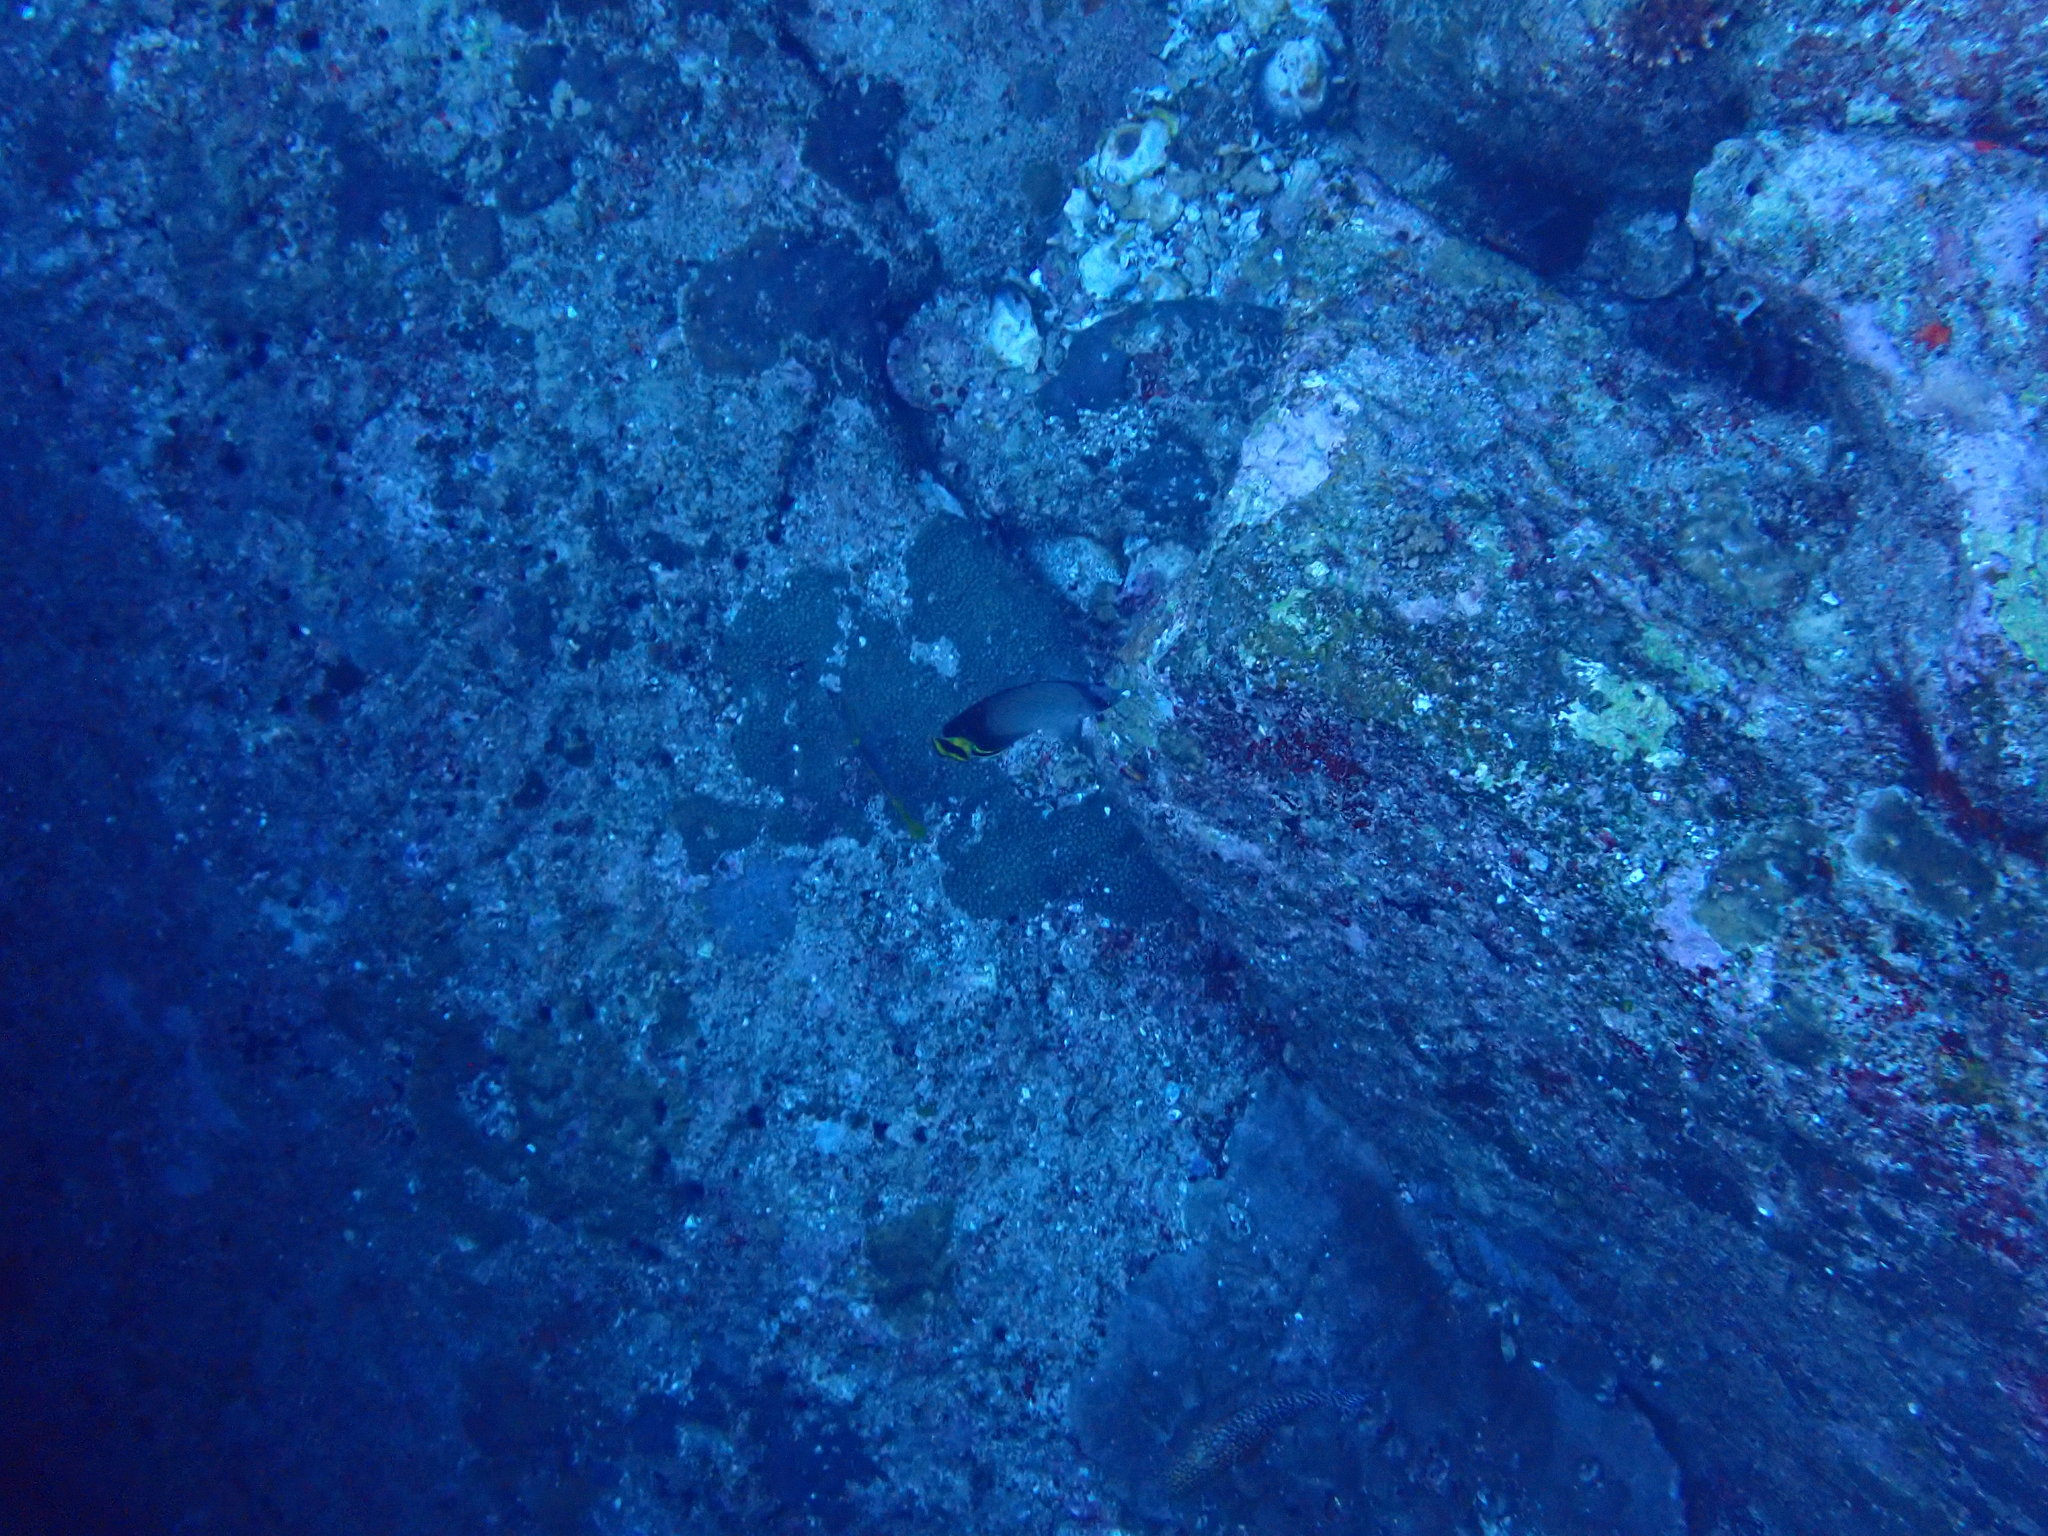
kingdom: Animalia
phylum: Chordata
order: Perciformes
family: Chaetodontidae
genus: Chaetodon
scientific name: Chaetodon decussatus
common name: Indian vagabond butterflyfish
